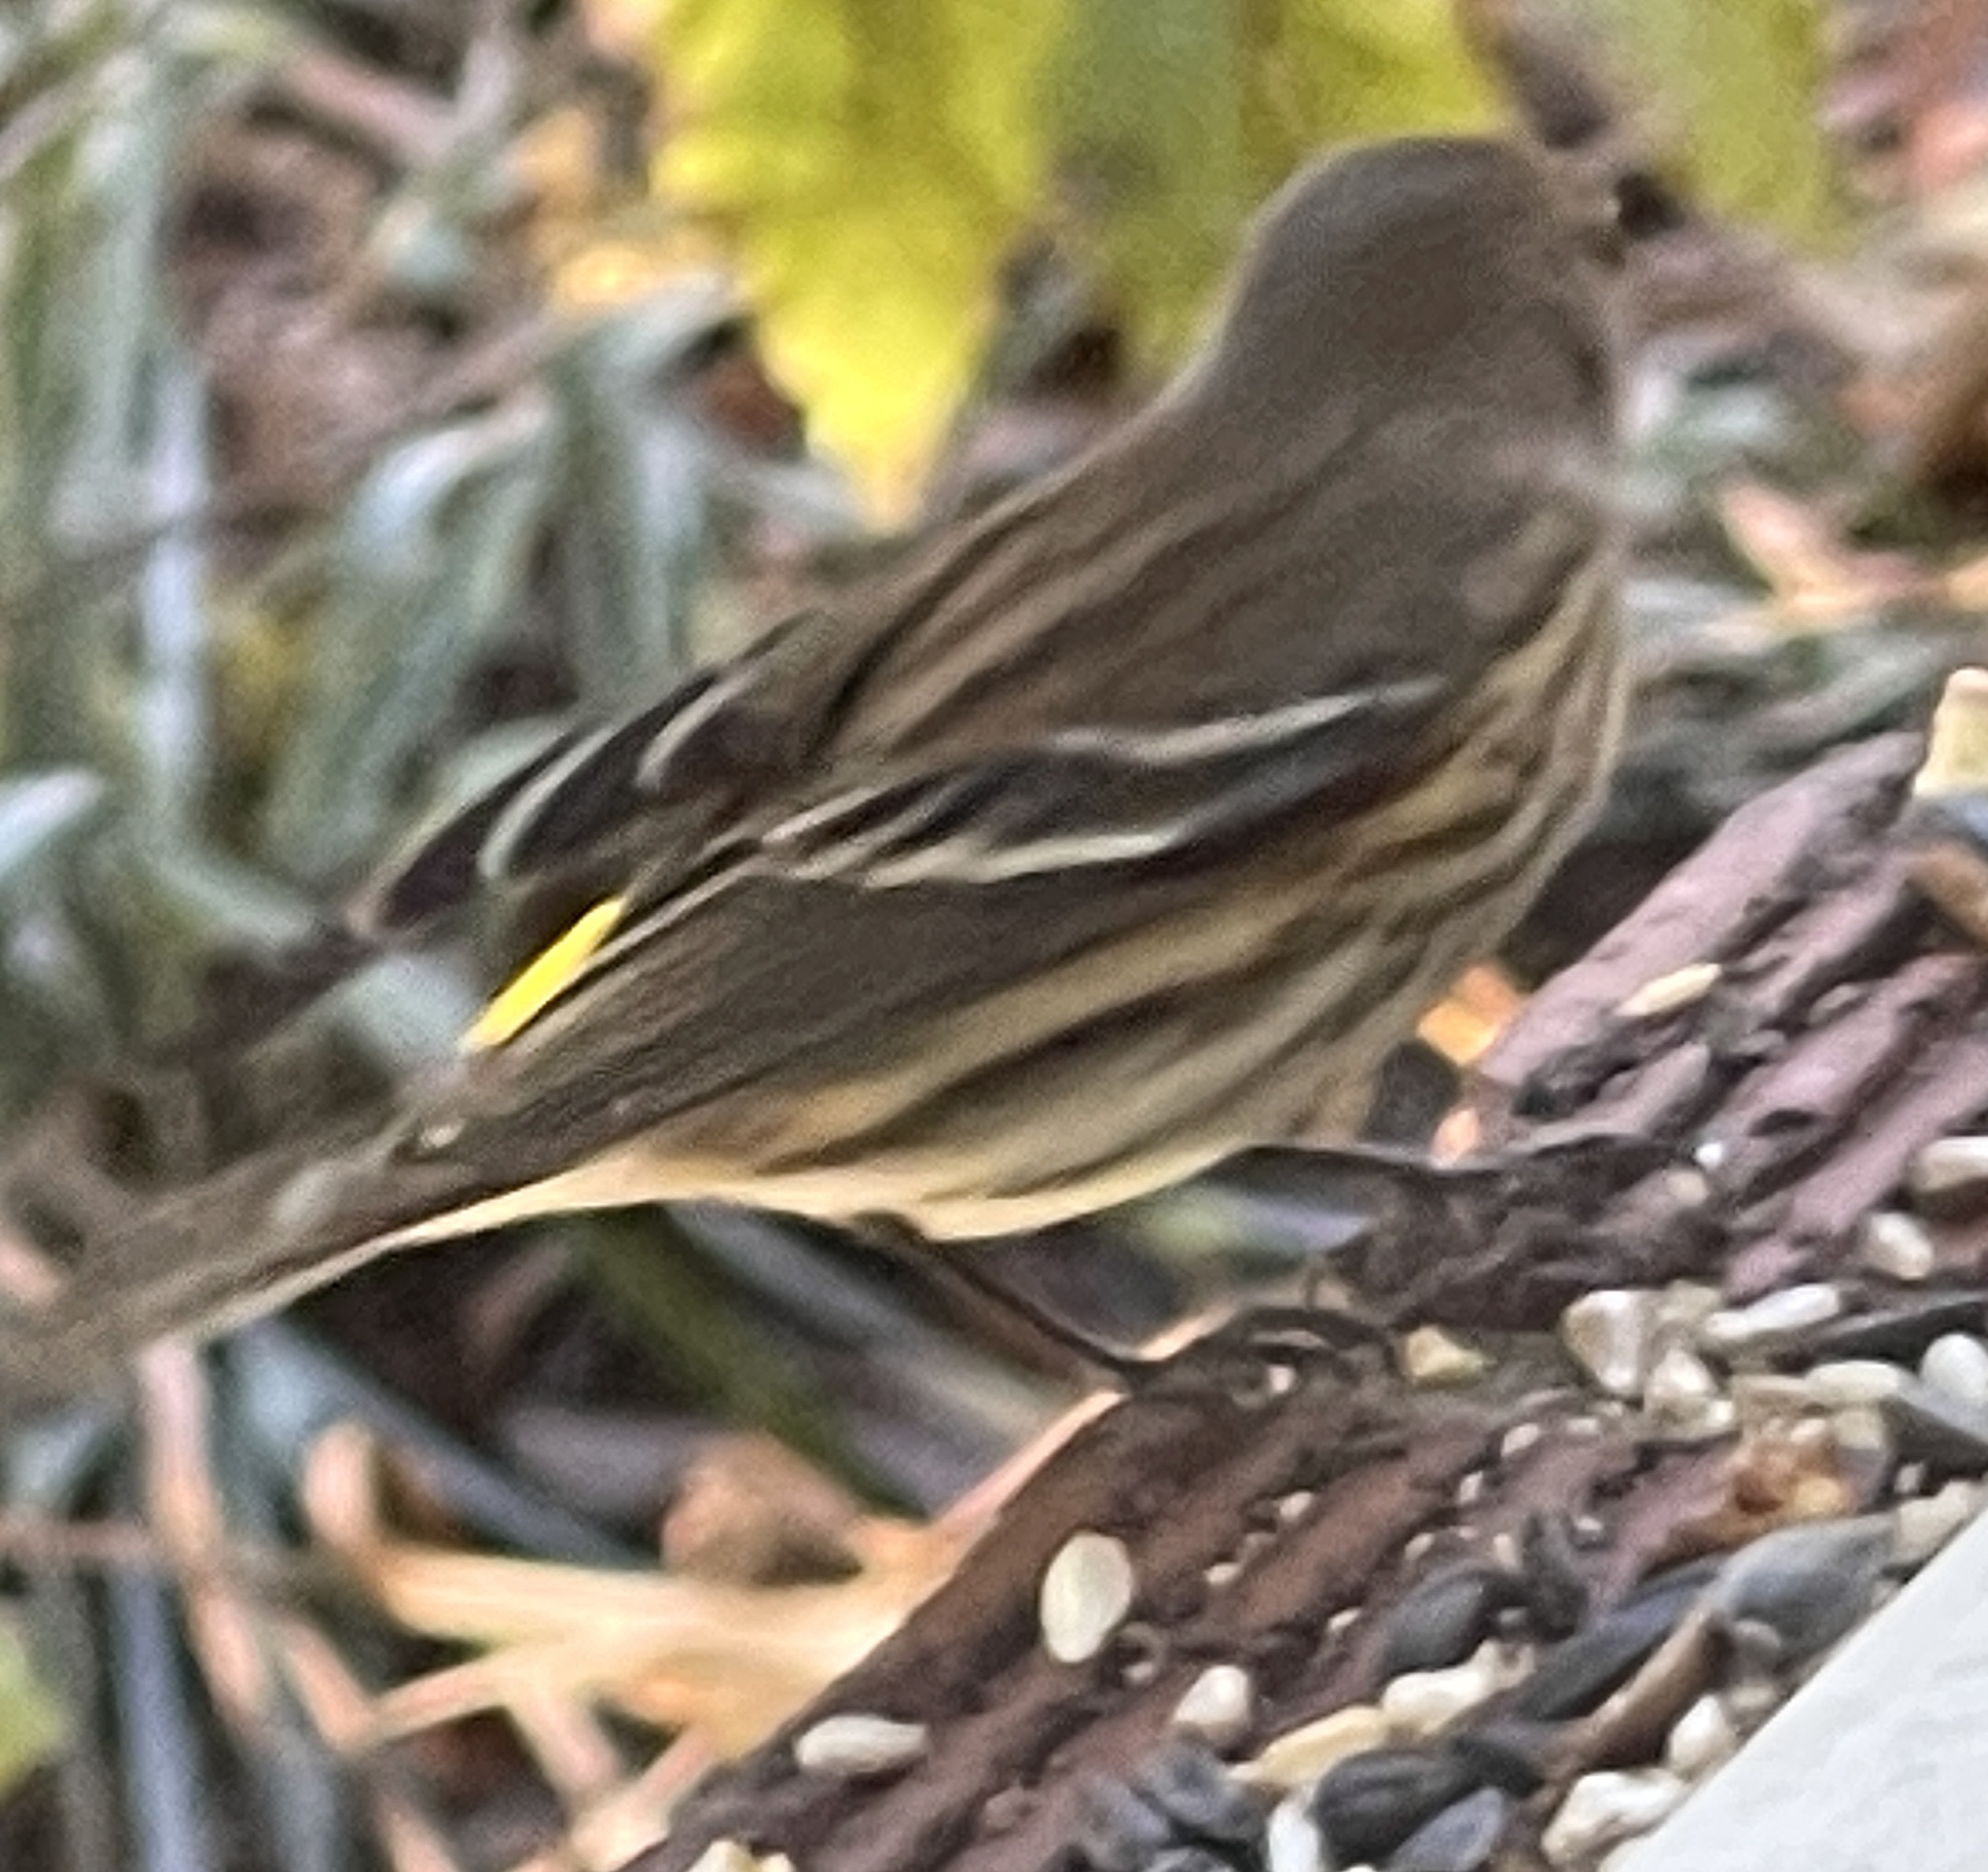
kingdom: Animalia
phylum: Chordata
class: Aves
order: Passeriformes
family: Parulidae
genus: Setophaga
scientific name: Setophaga coronata
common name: Myrtle warbler
